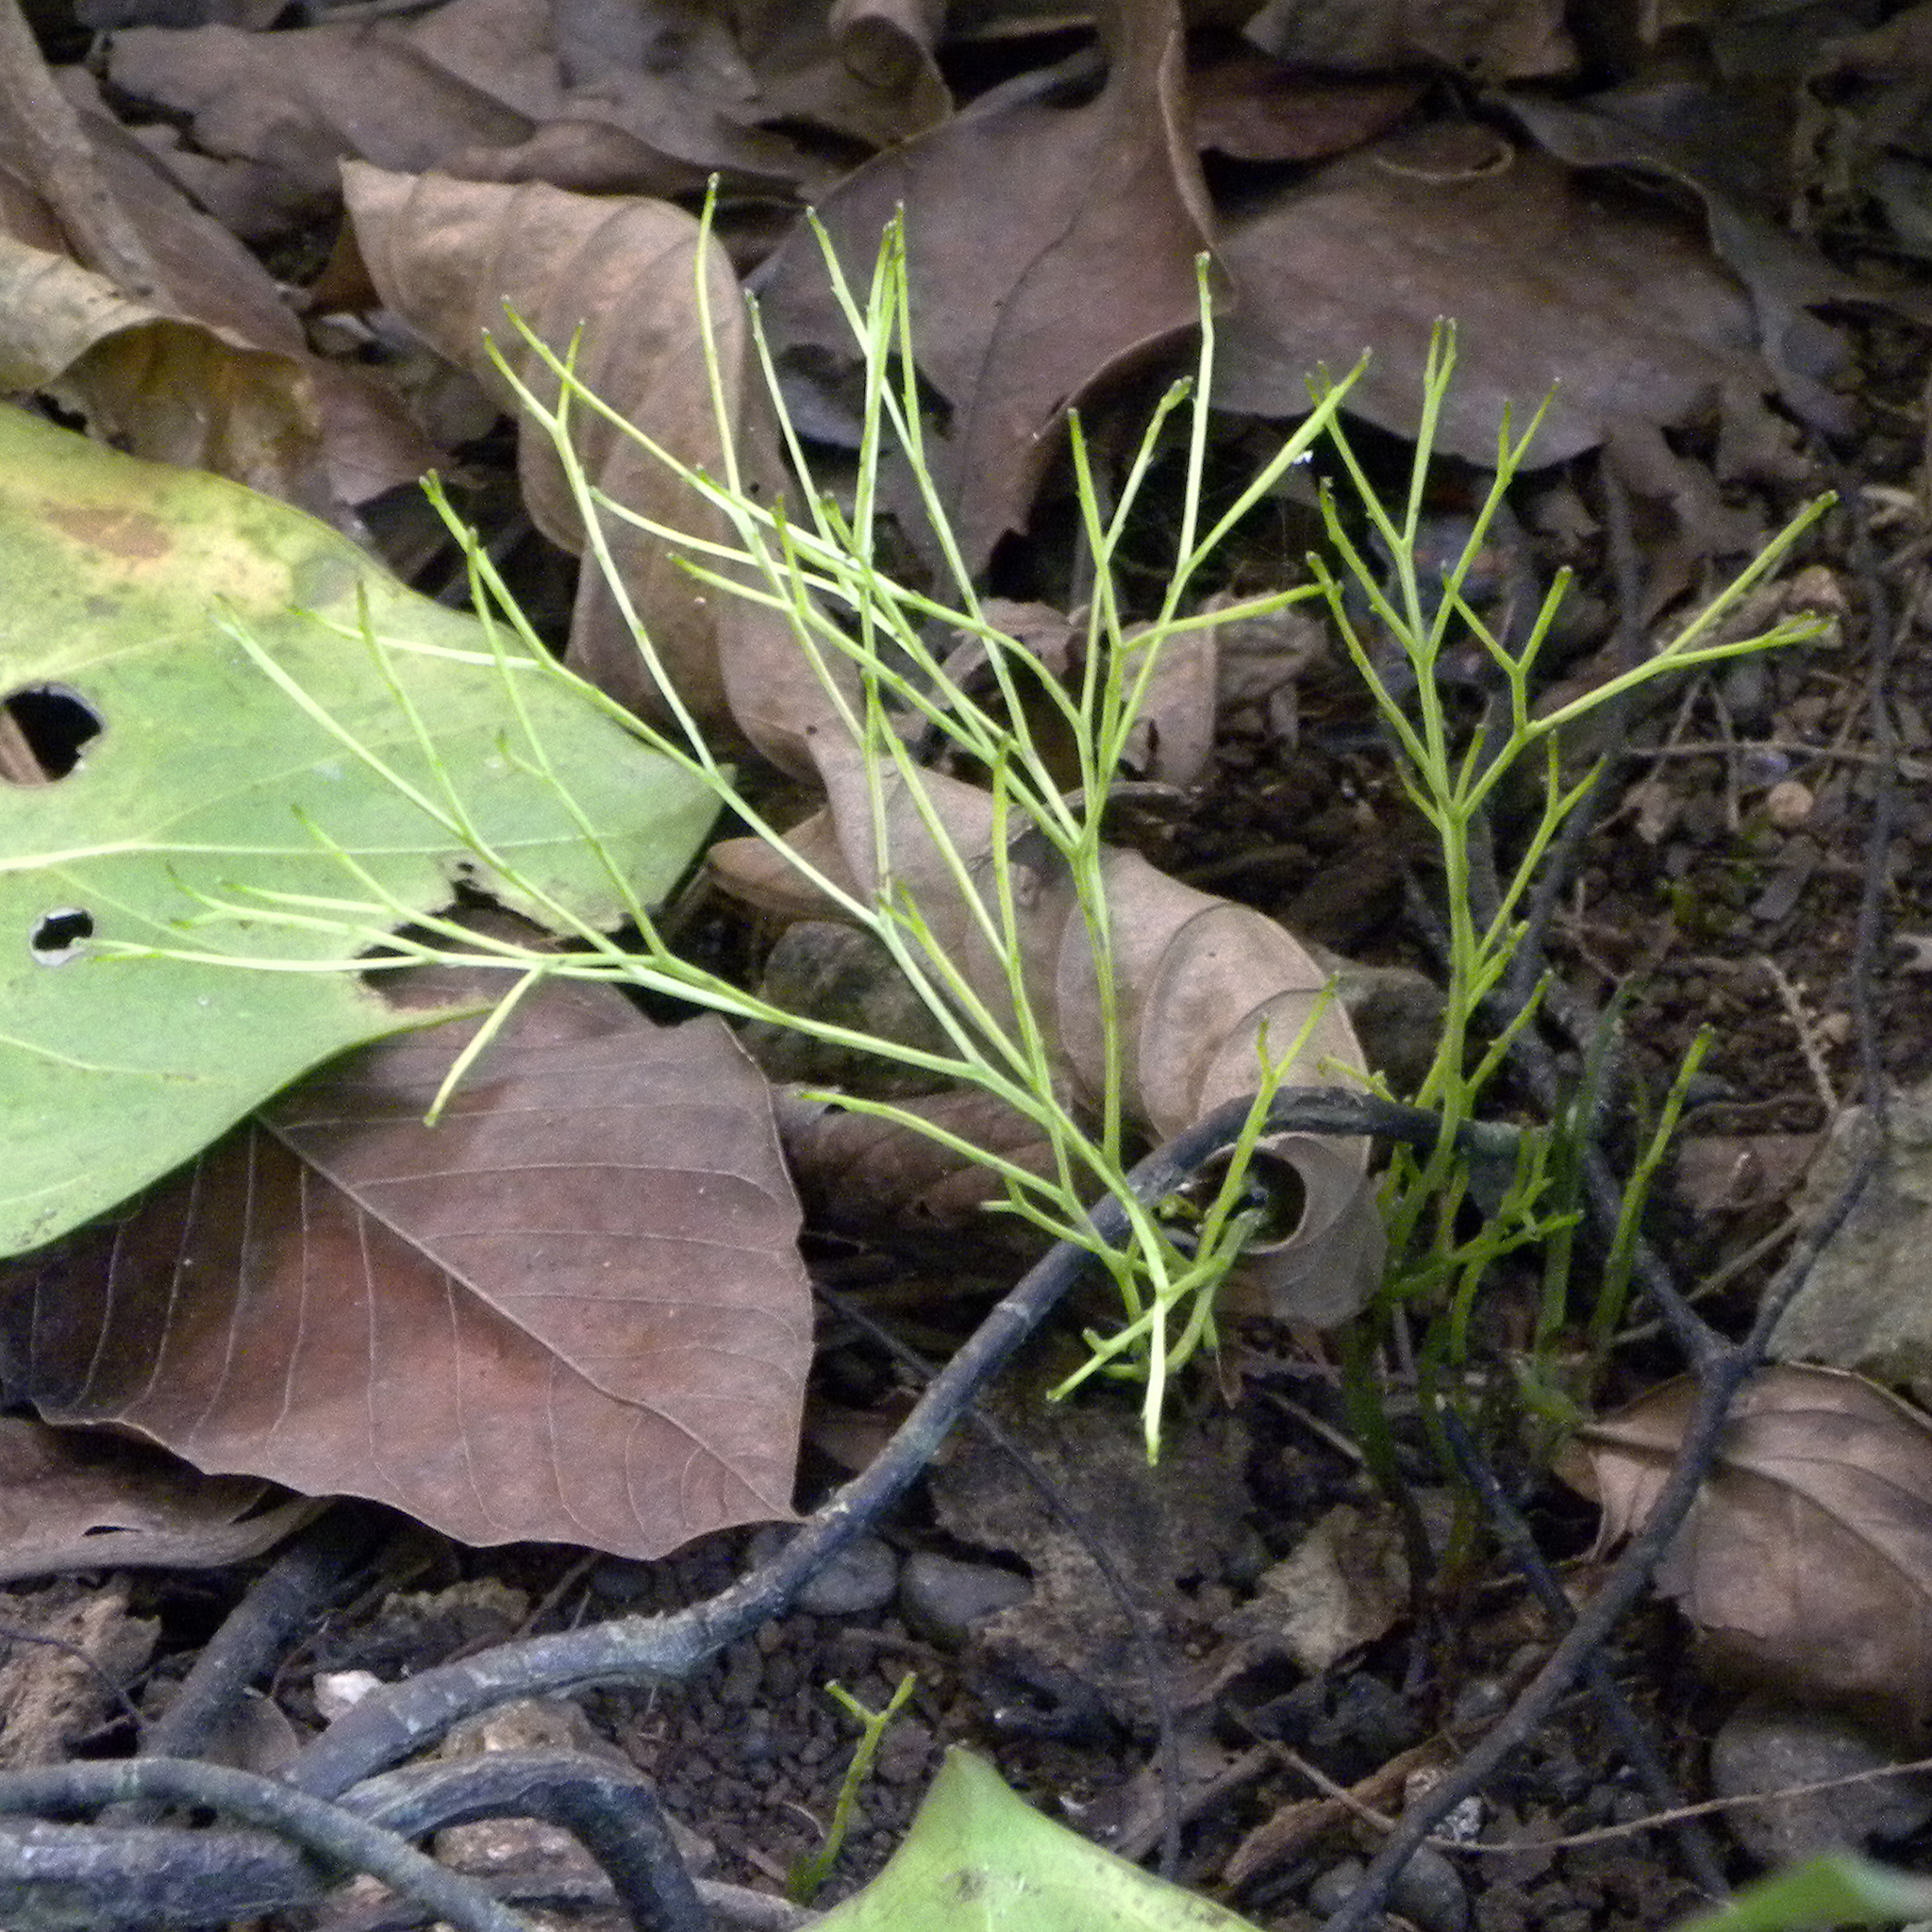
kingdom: Plantae
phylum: Tracheophyta
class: Polypodiopsida
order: Psilotales
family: Psilotaceae
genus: Psilotum
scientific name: Psilotum nudum
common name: Skeleton fork fern
